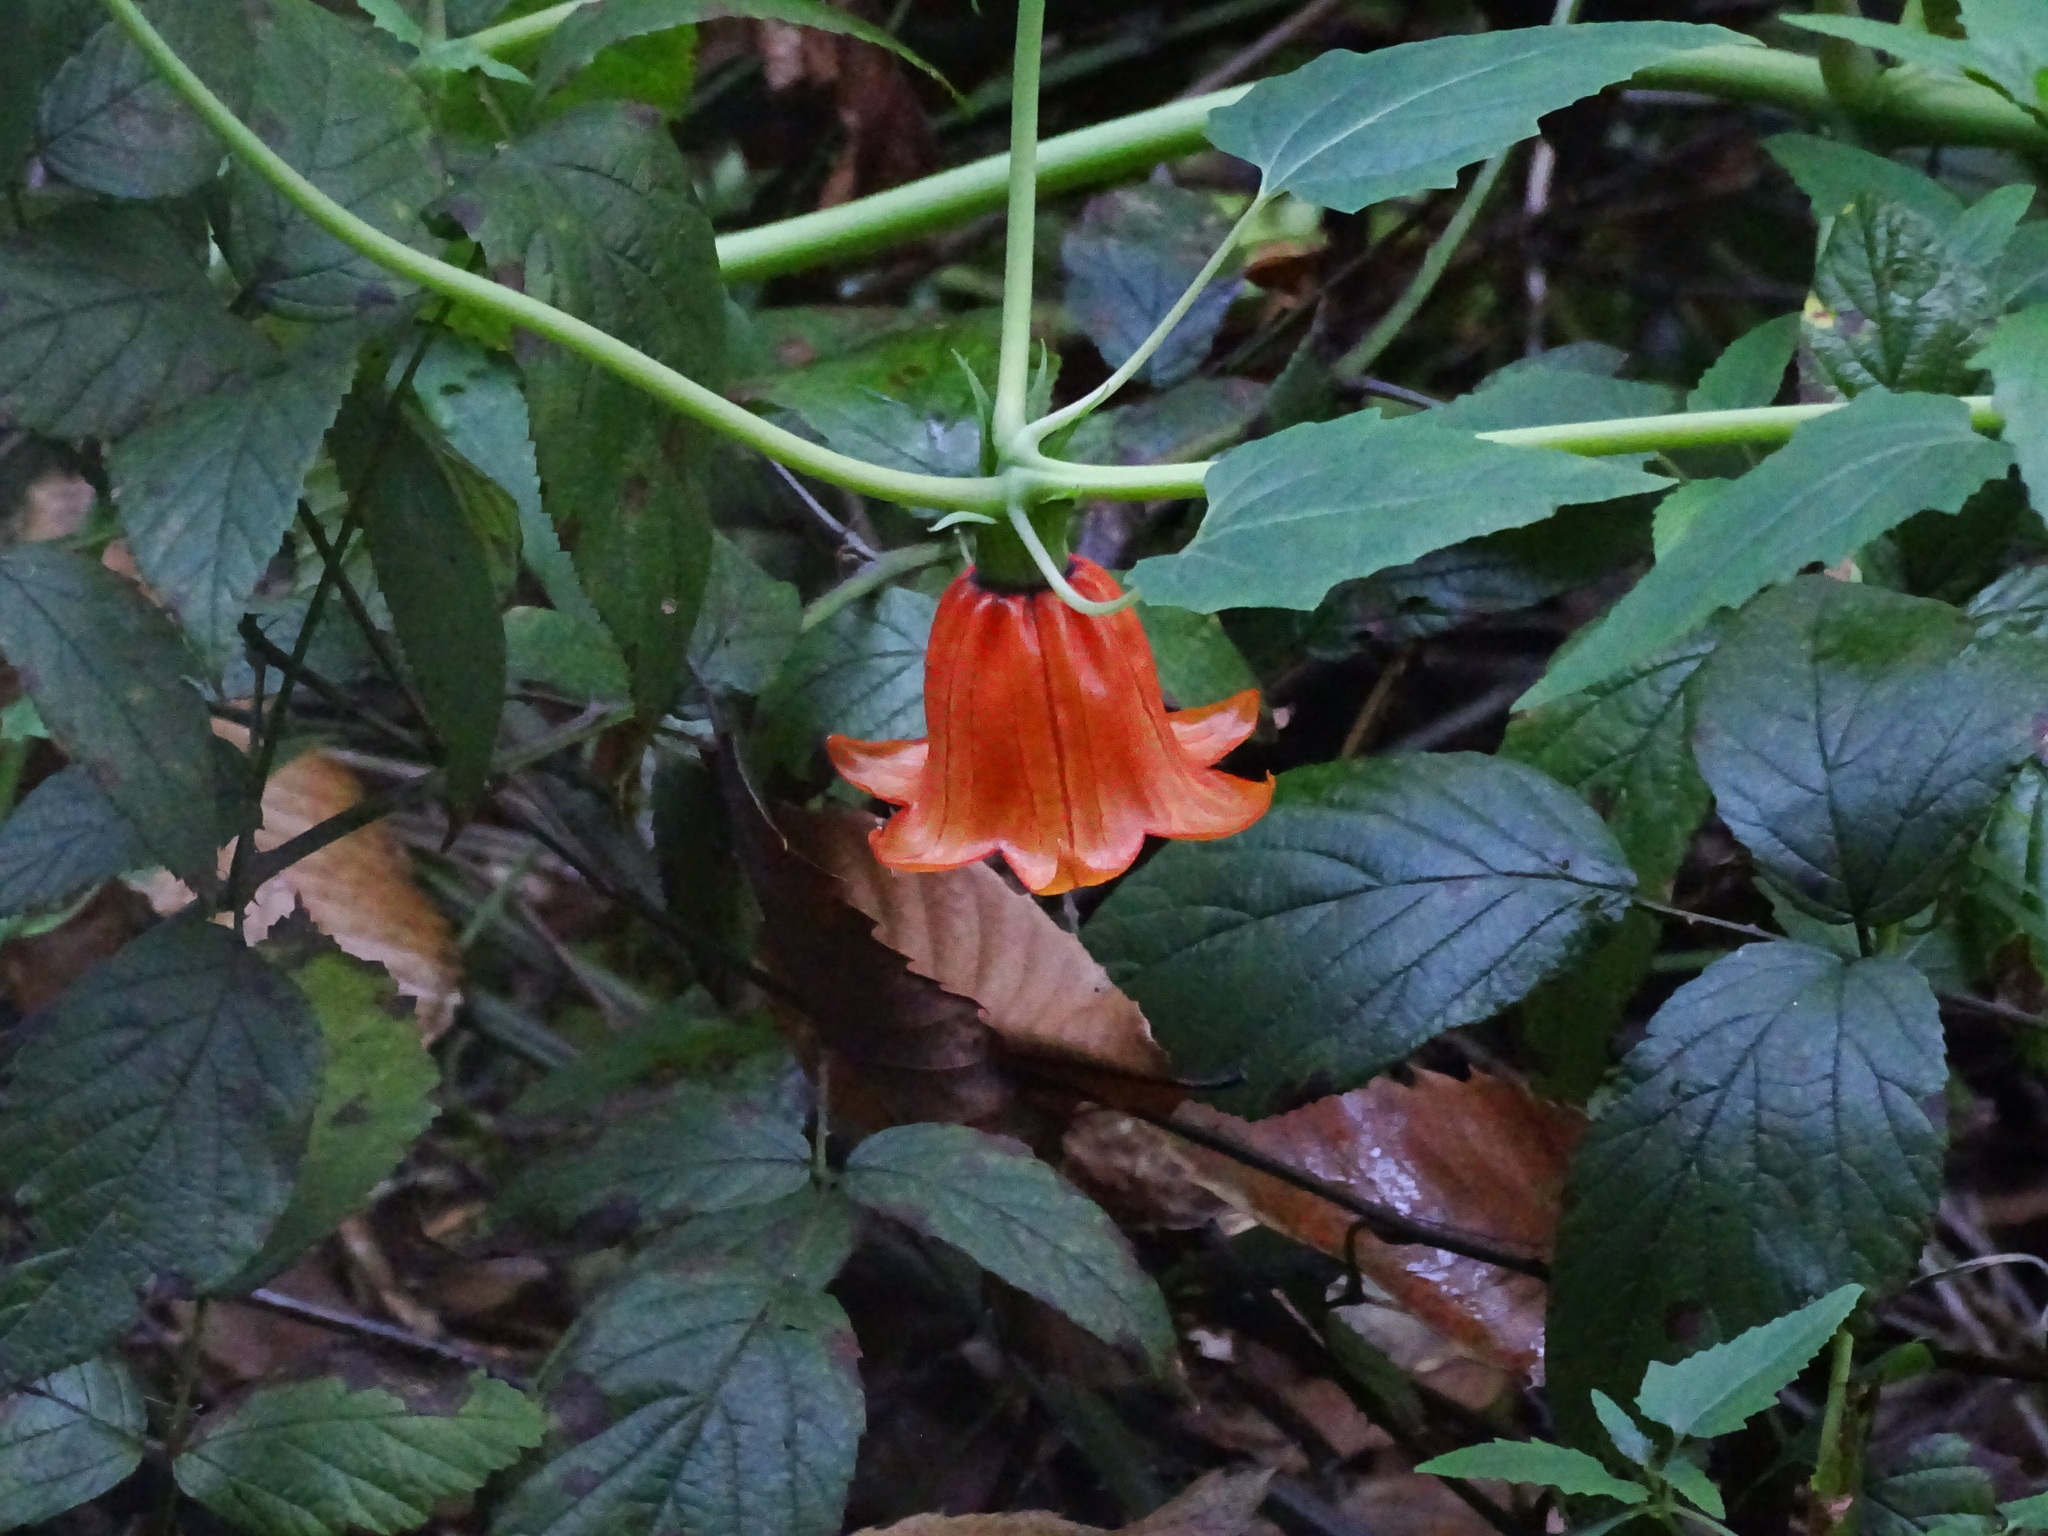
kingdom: Plantae
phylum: Tracheophyta
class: Magnoliopsida
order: Asterales
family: Campanulaceae
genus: Canarina
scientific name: Canarina canariensis
